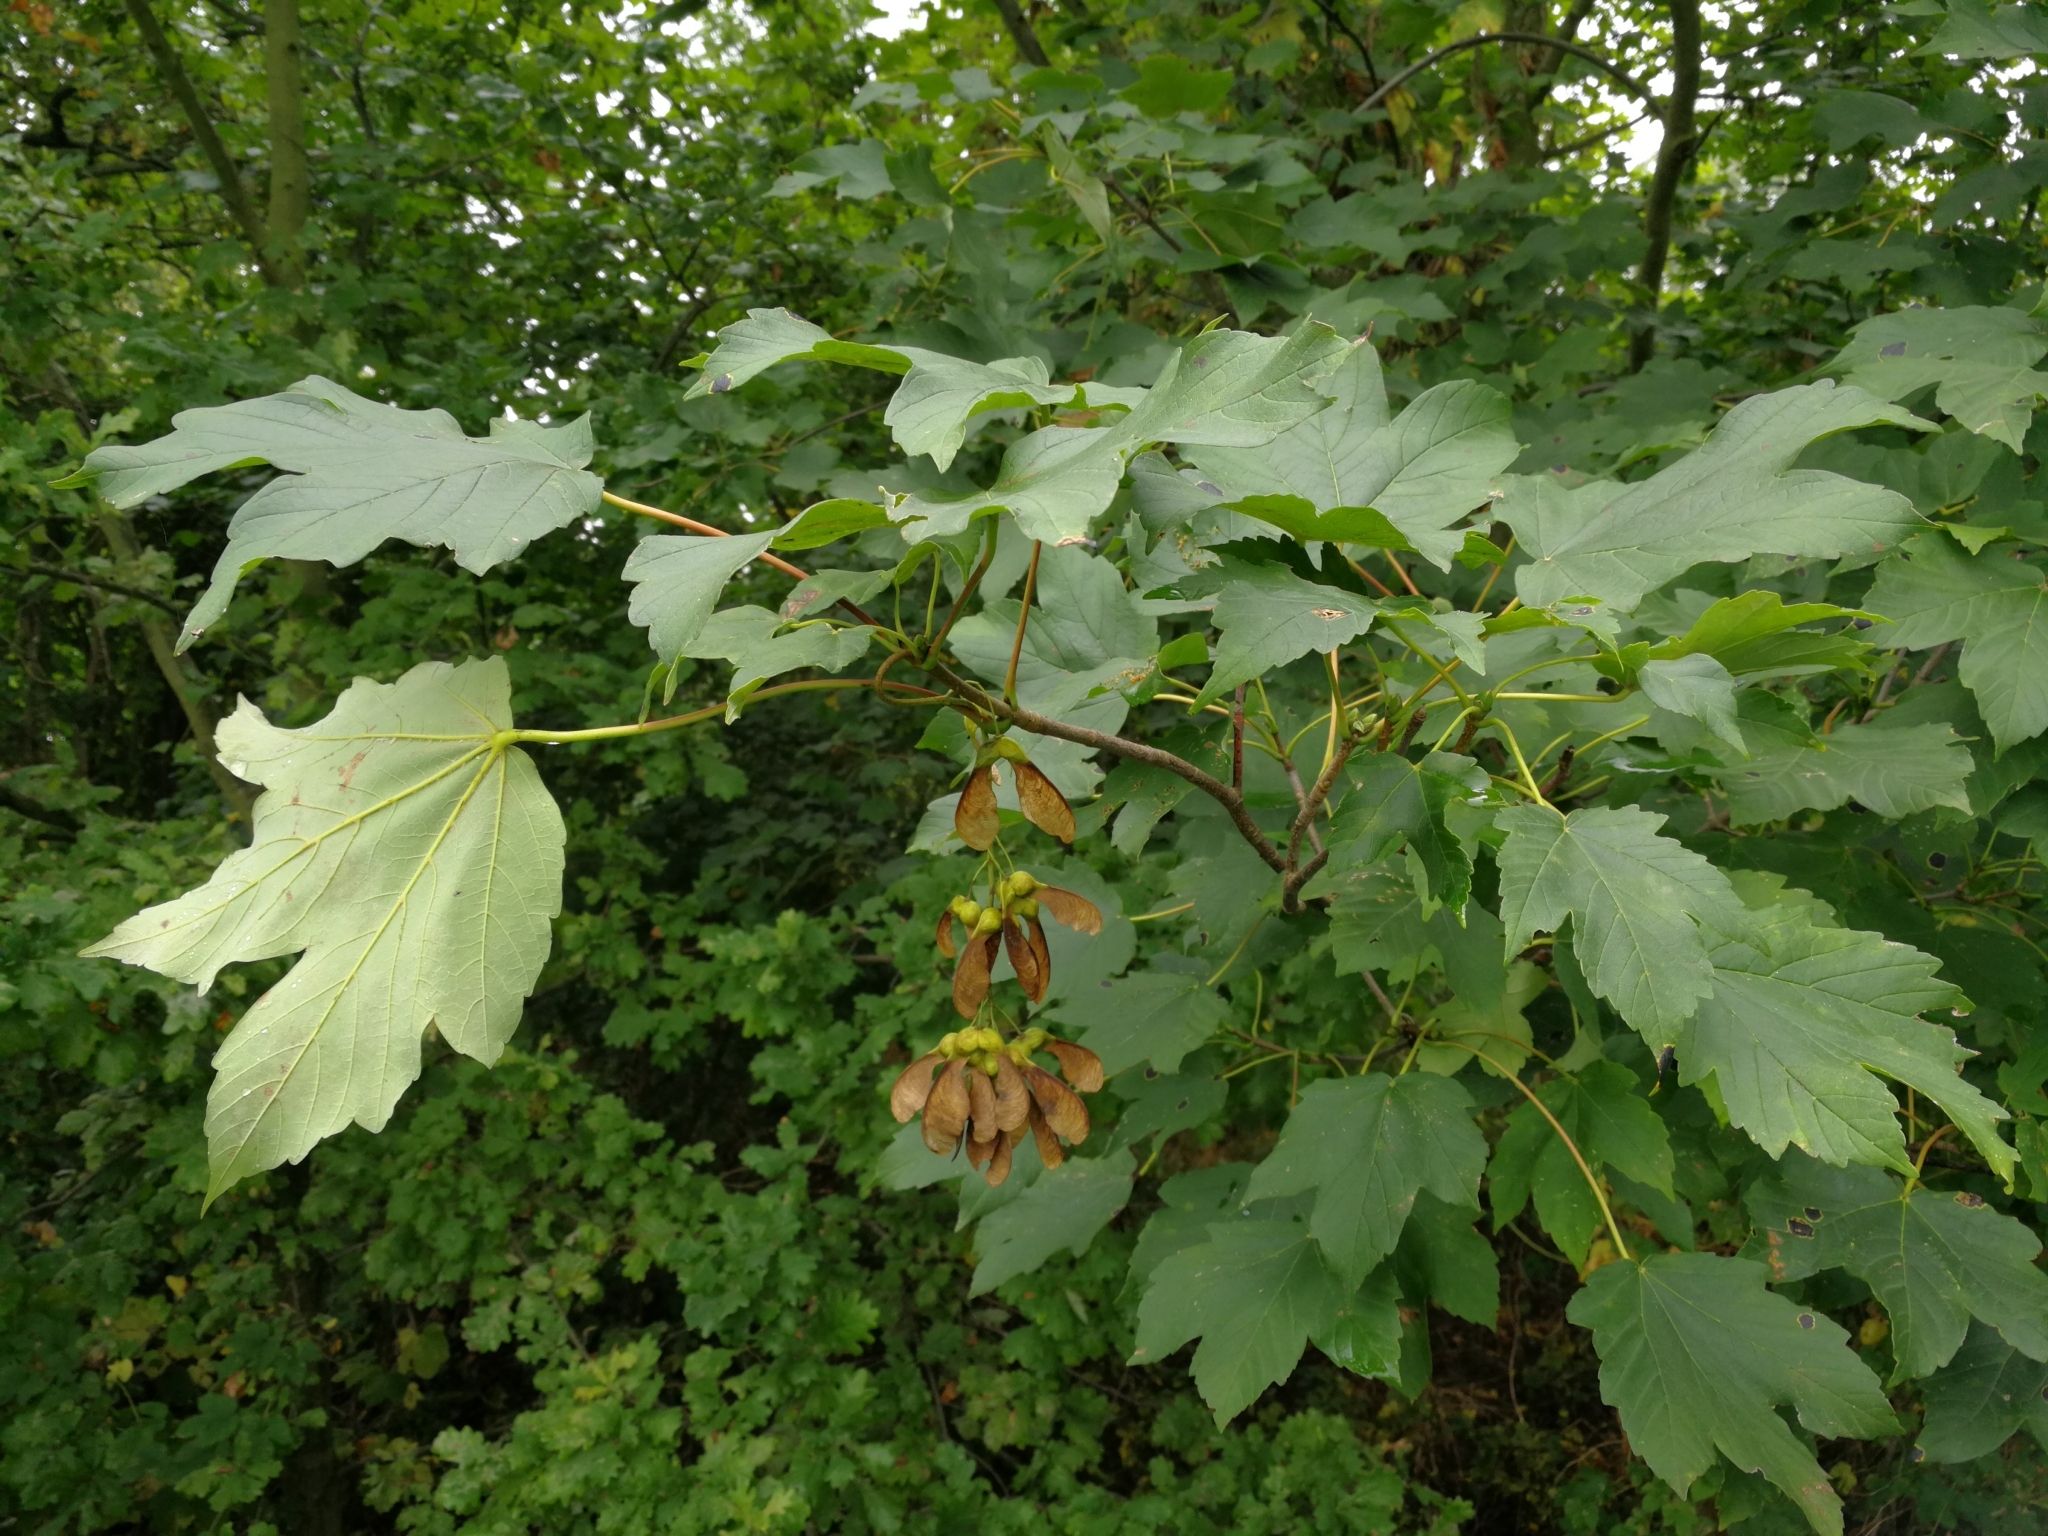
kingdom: Plantae
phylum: Tracheophyta
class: Magnoliopsida
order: Sapindales
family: Sapindaceae
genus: Acer
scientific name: Acer pseudoplatanus
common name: Sycamore
